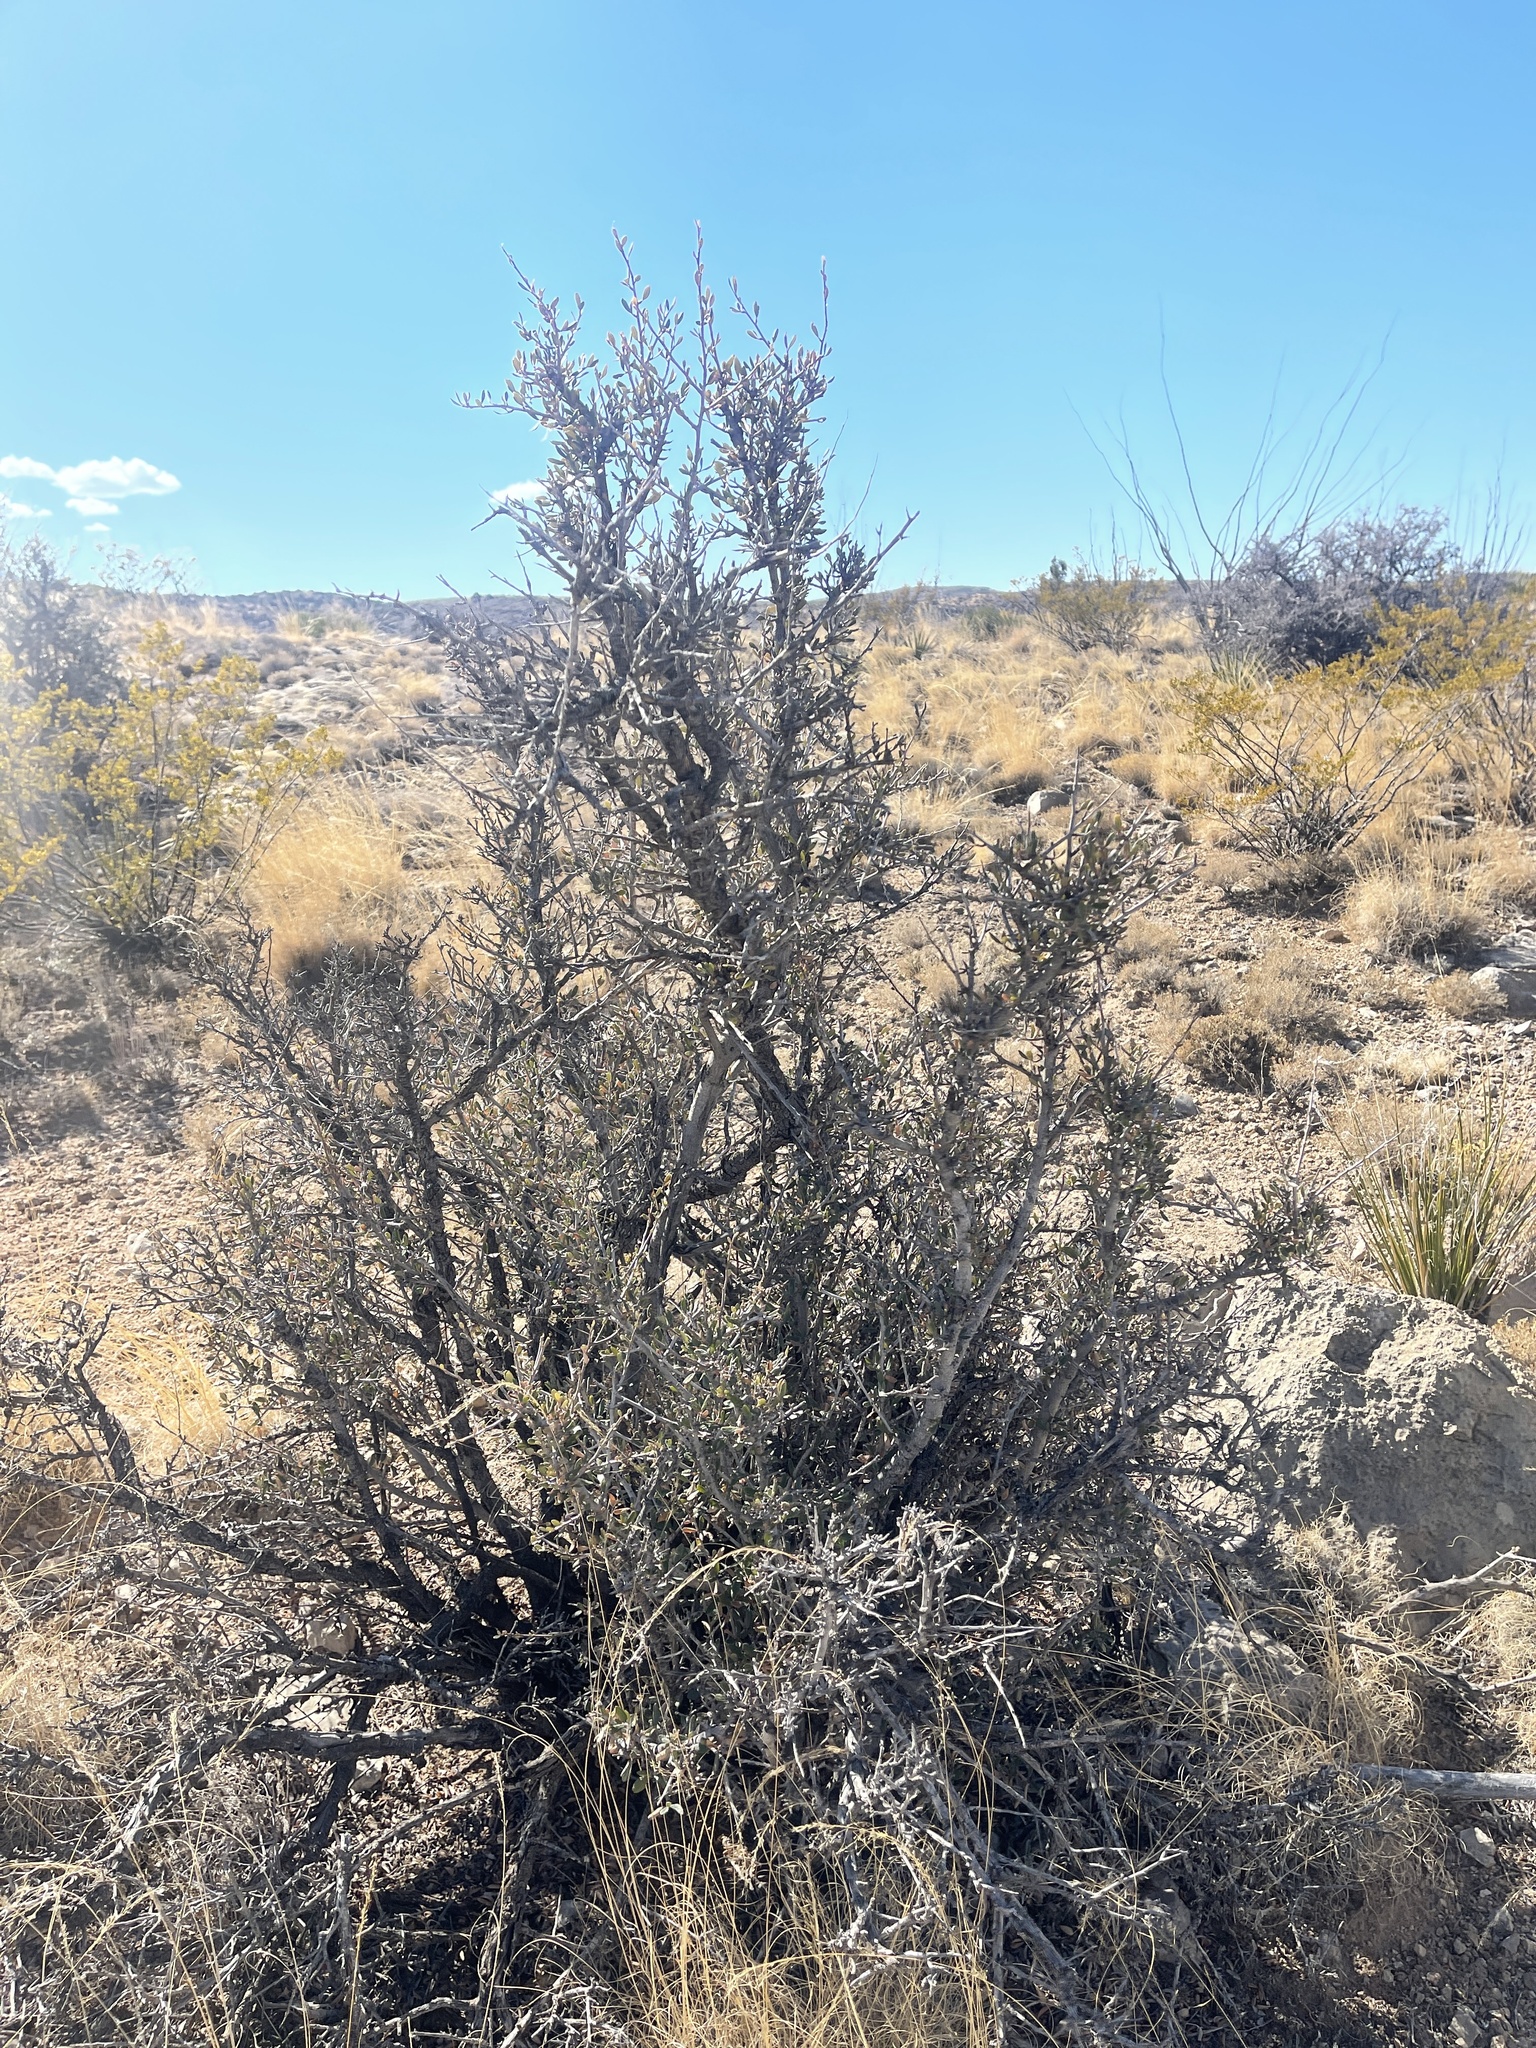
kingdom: Plantae
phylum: Tracheophyta
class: Magnoliopsida
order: Rosales
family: Rosaceae
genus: Cercocarpus
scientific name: Cercocarpus breviflorus
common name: Wright's mountain-mahogany
